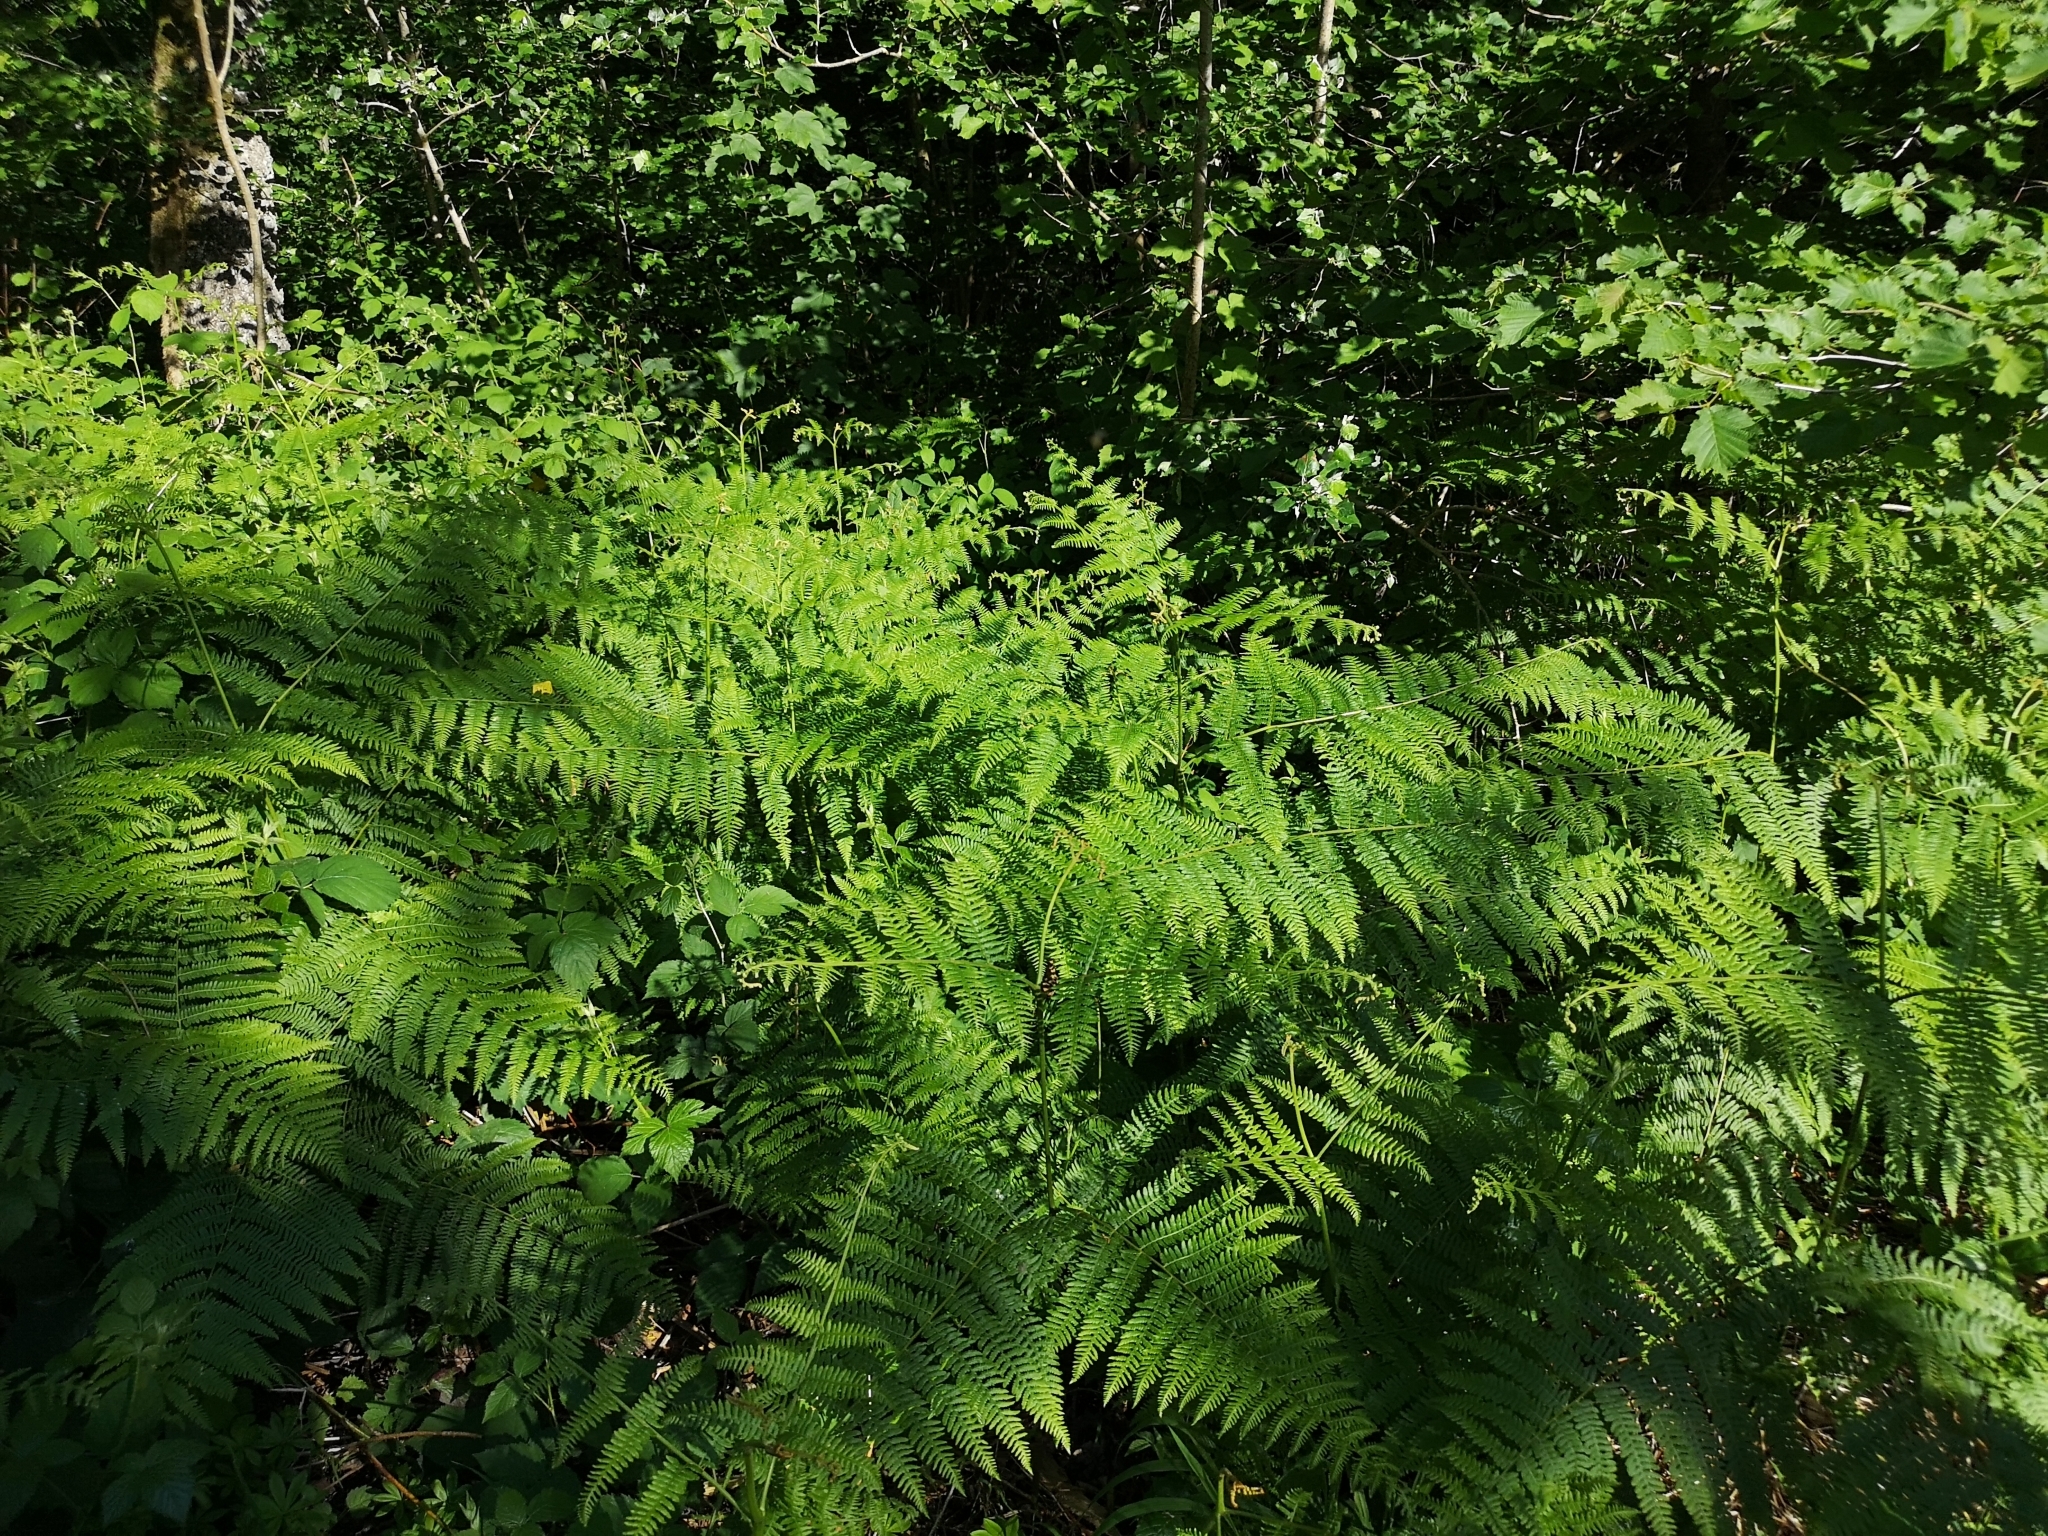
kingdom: Plantae
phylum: Tracheophyta
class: Polypodiopsida
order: Polypodiales
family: Dennstaedtiaceae
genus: Pteridium
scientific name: Pteridium aquilinum
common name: Bracken
